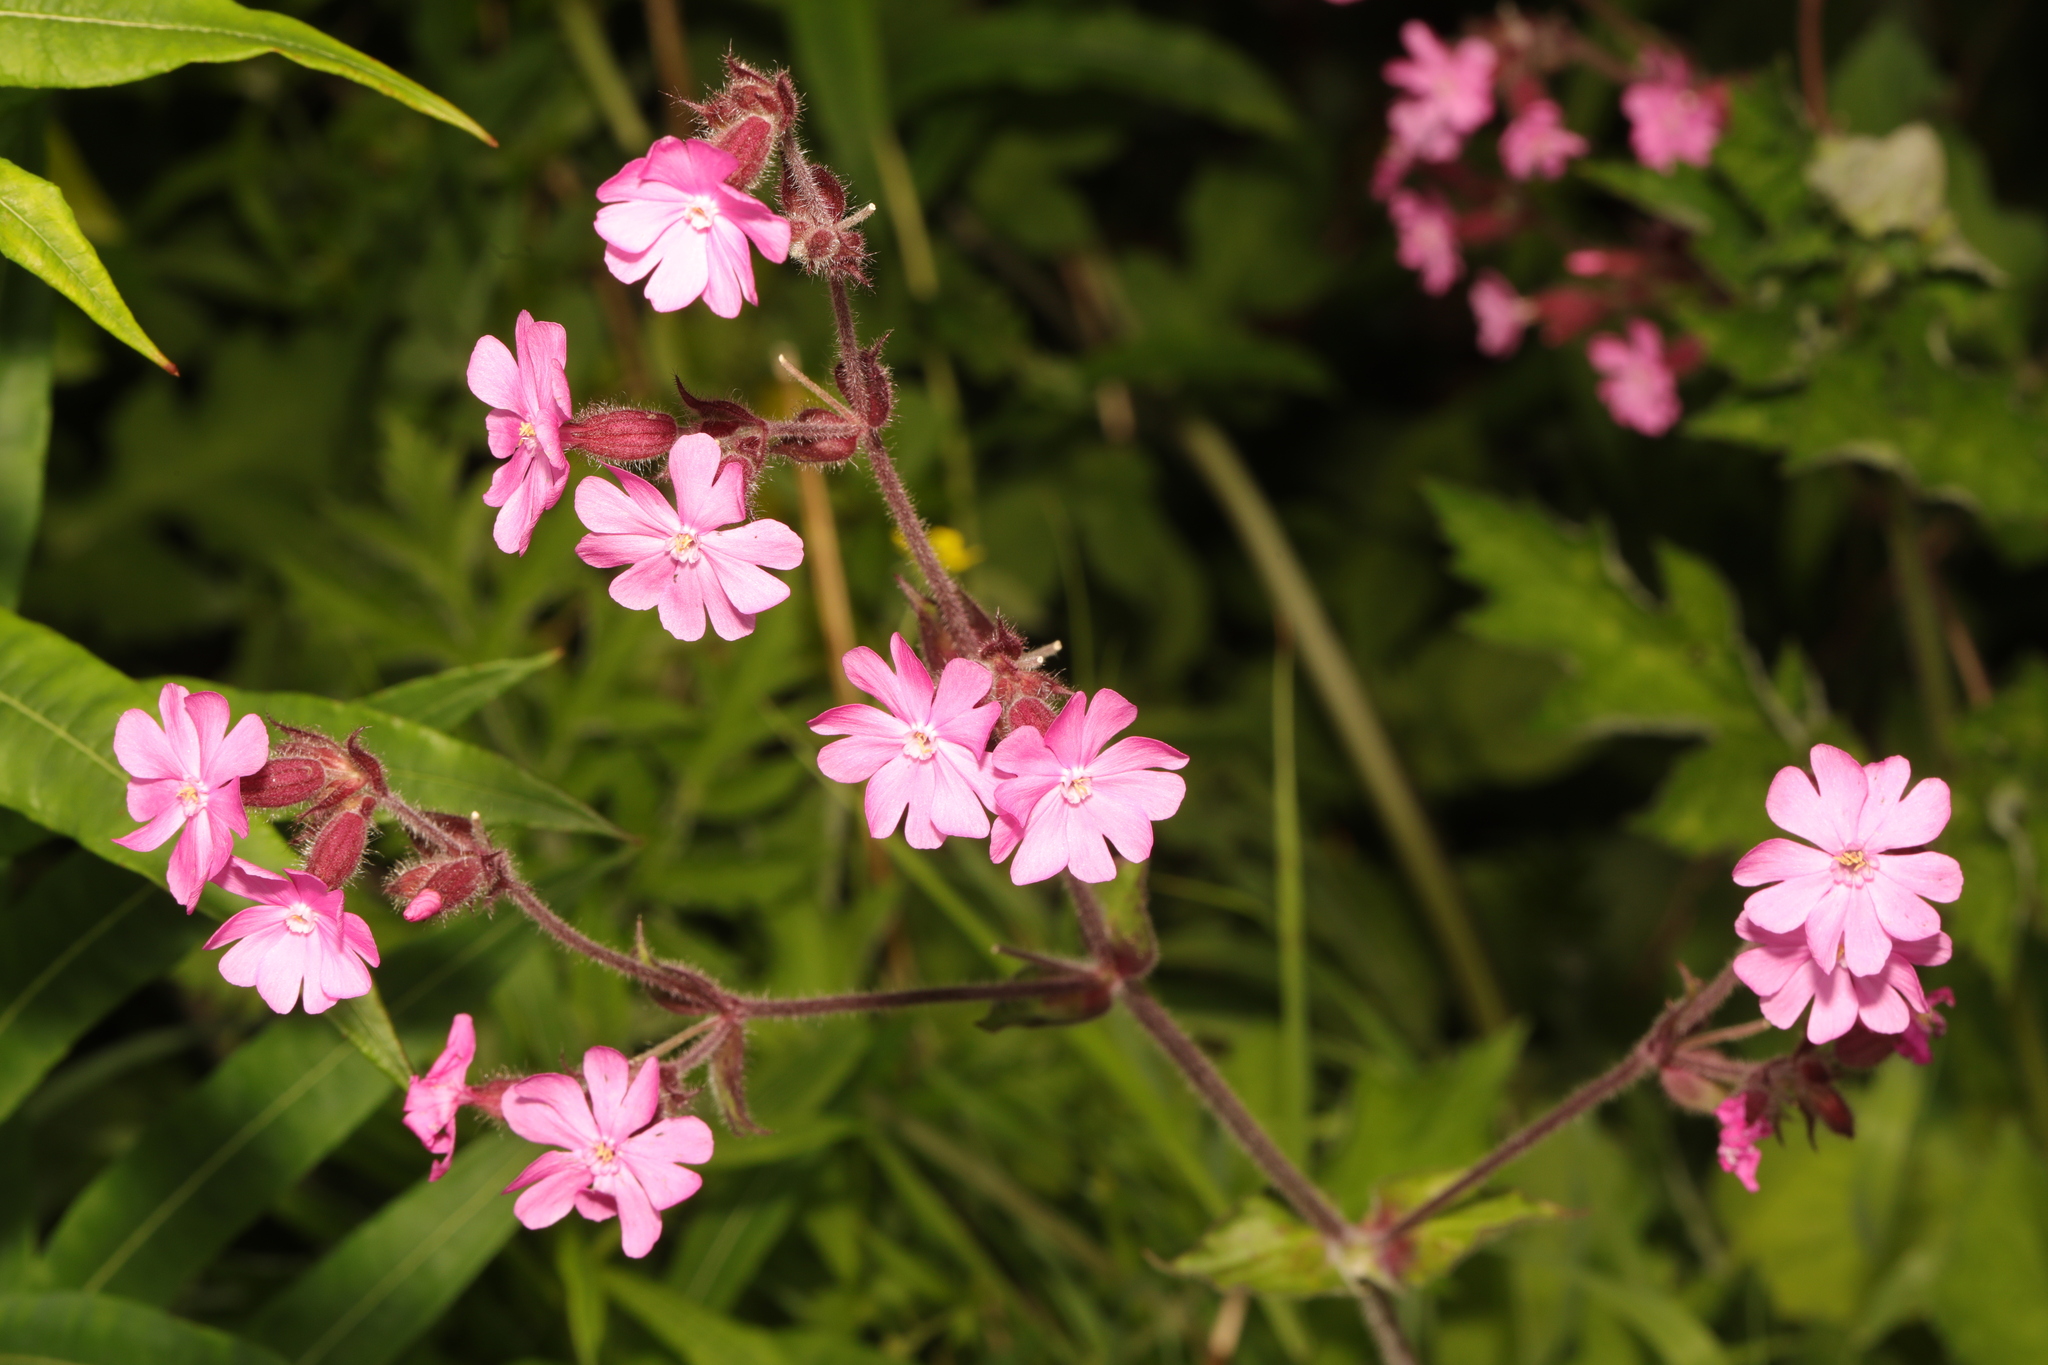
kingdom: Plantae
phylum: Tracheophyta
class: Magnoliopsida
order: Caryophyllales
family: Caryophyllaceae
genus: Silene
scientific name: Silene dioica
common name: Red campion
